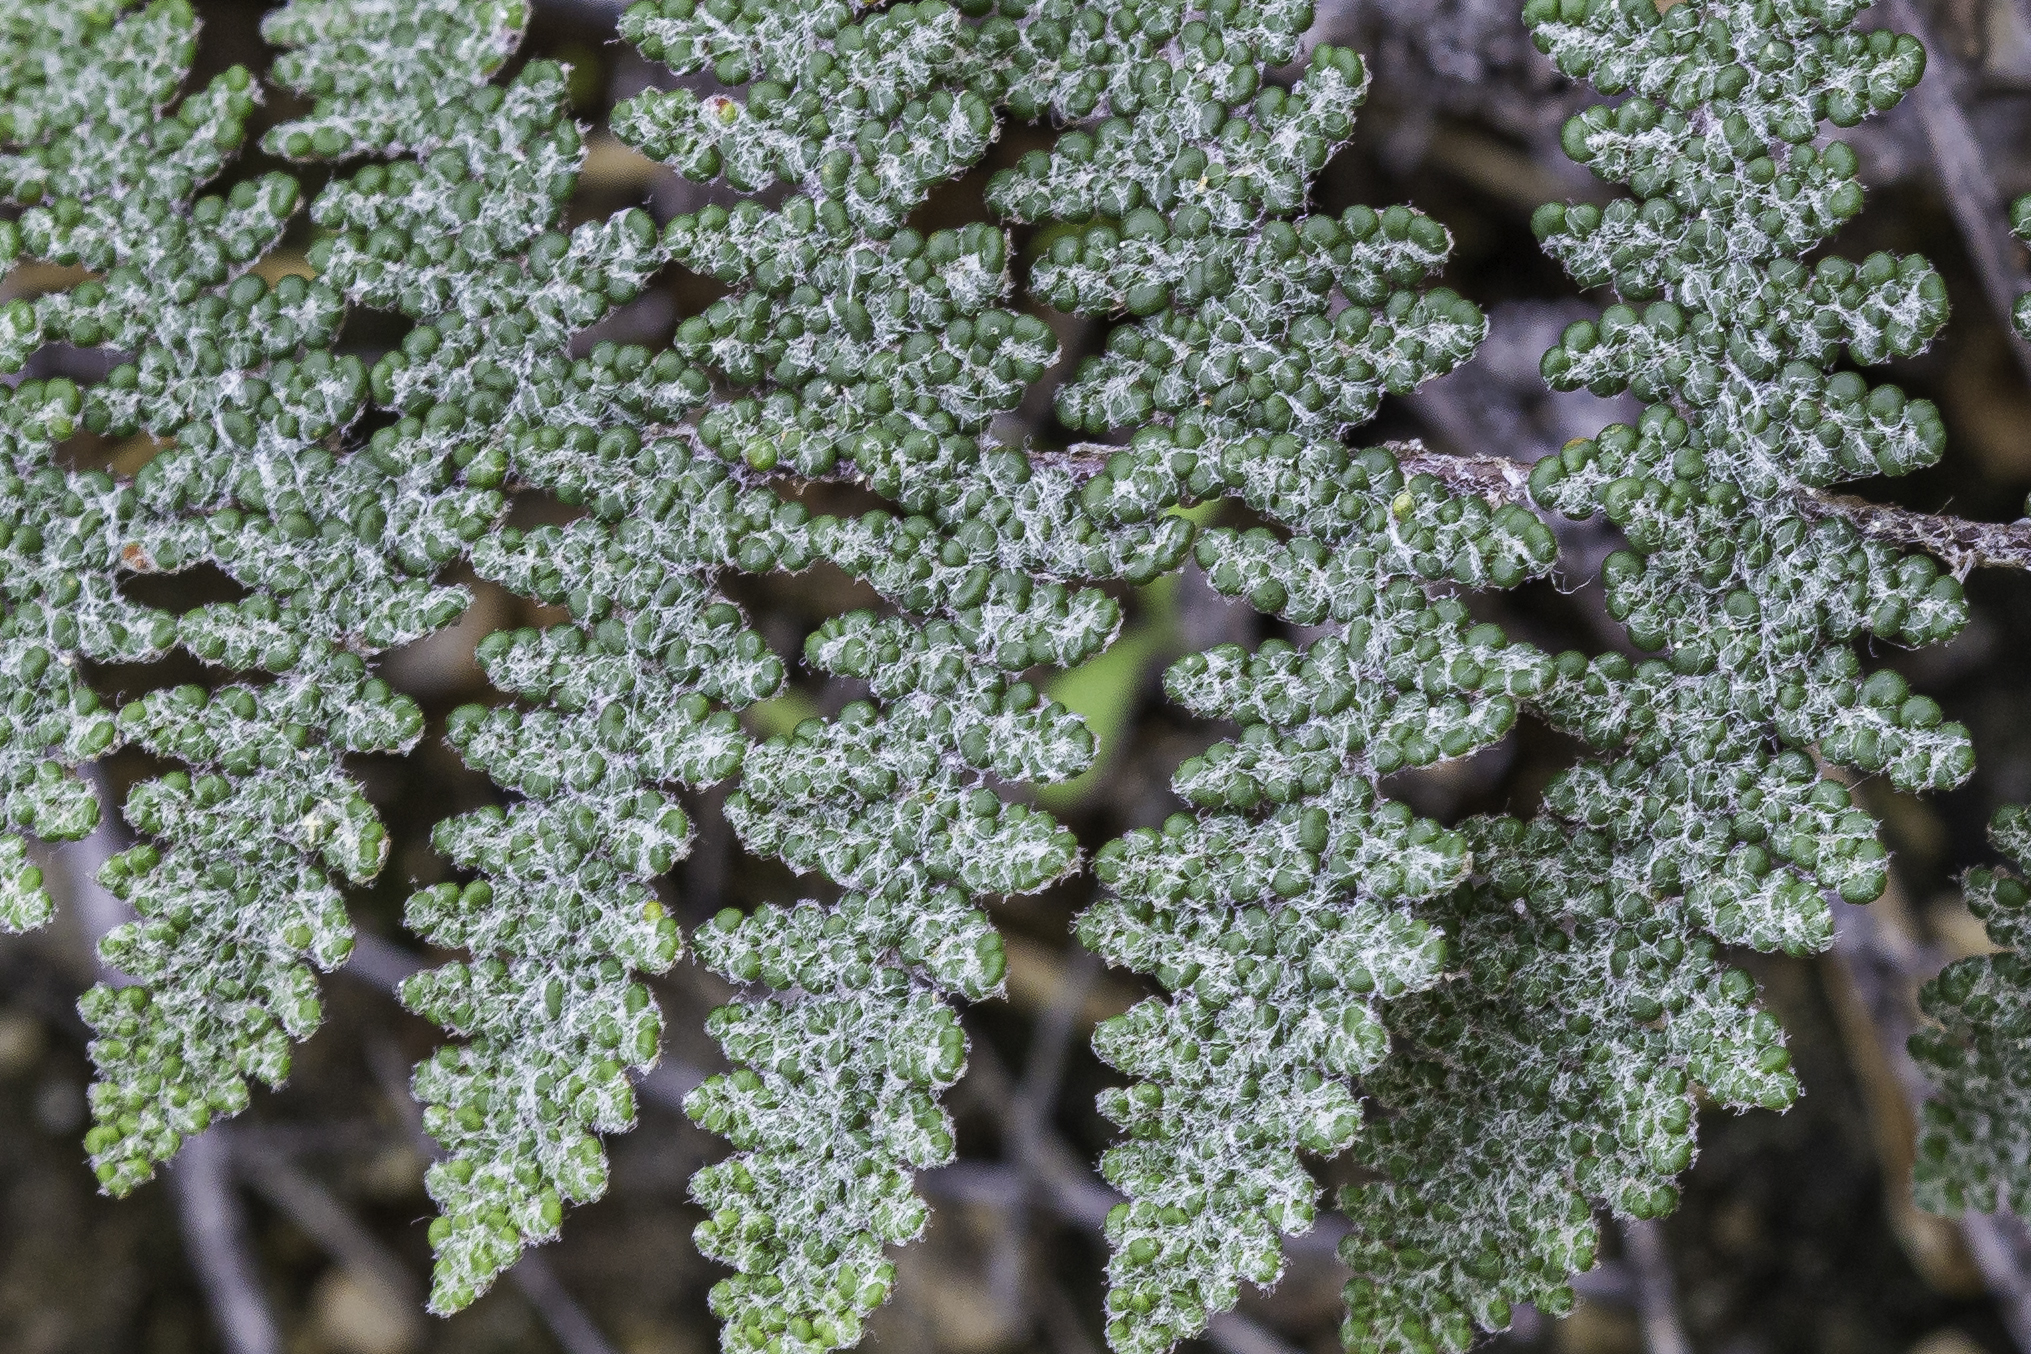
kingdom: Plantae
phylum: Tracheophyta
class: Polypodiopsida
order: Polypodiales
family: Pteridaceae
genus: Myriopteris
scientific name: Myriopteris lindheimeri
